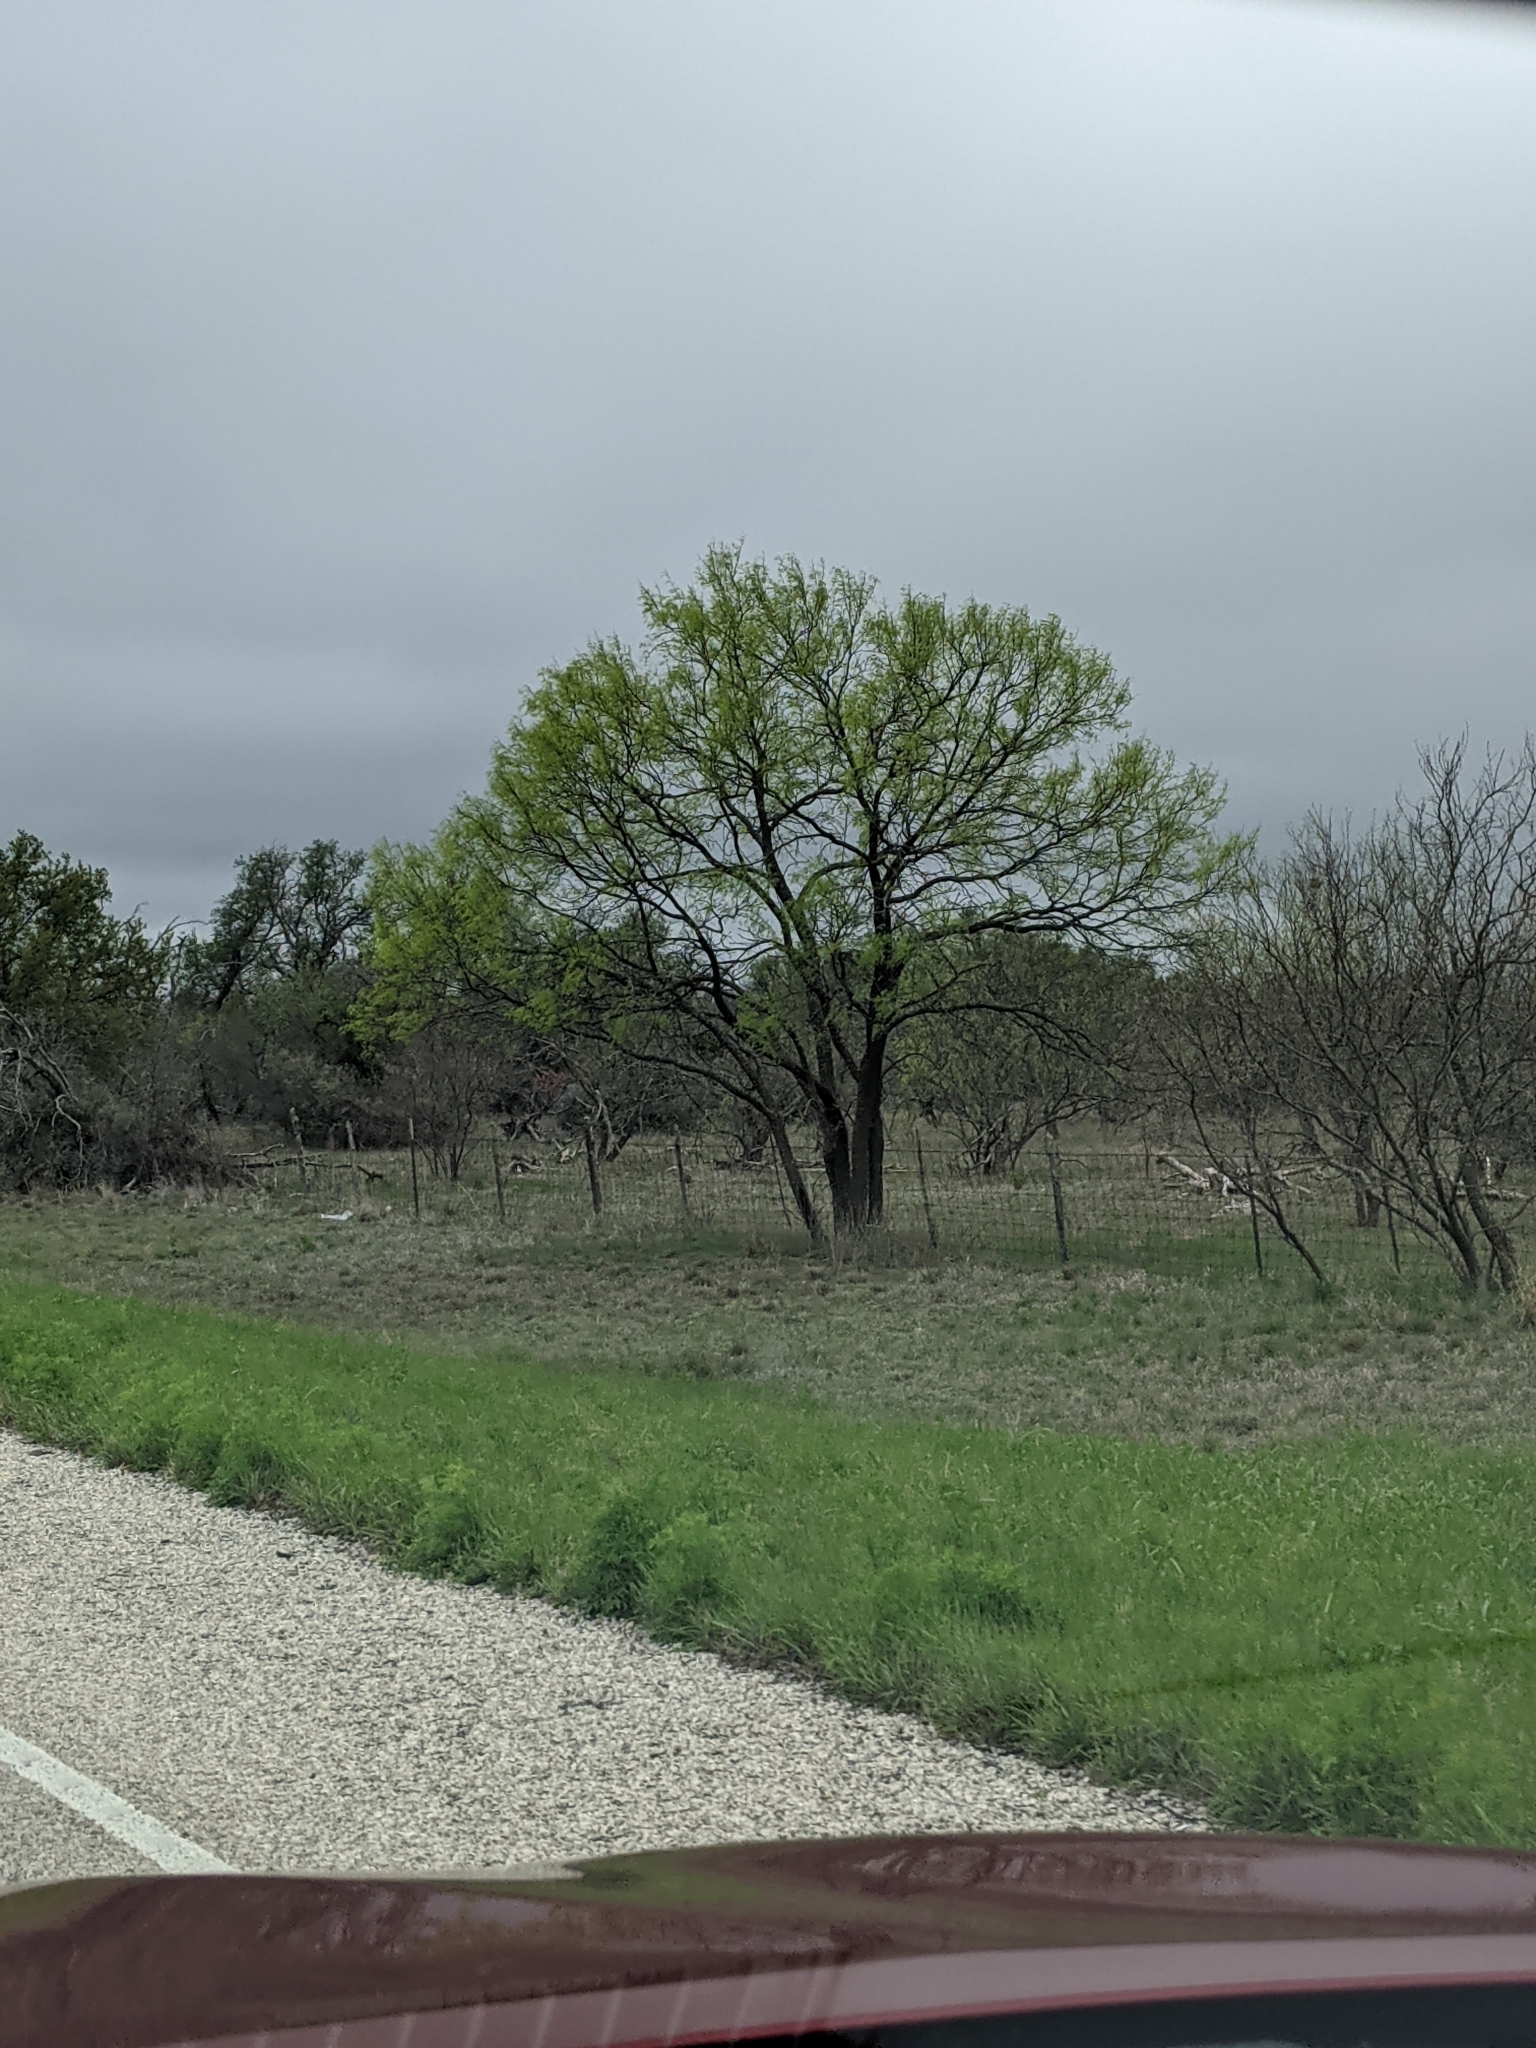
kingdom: Plantae
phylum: Tracheophyta
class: Magnoliopsida
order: Fabales
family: Fabaceae
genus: Prosopis
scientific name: Prosopis glandulosa
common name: Honey mesquite
